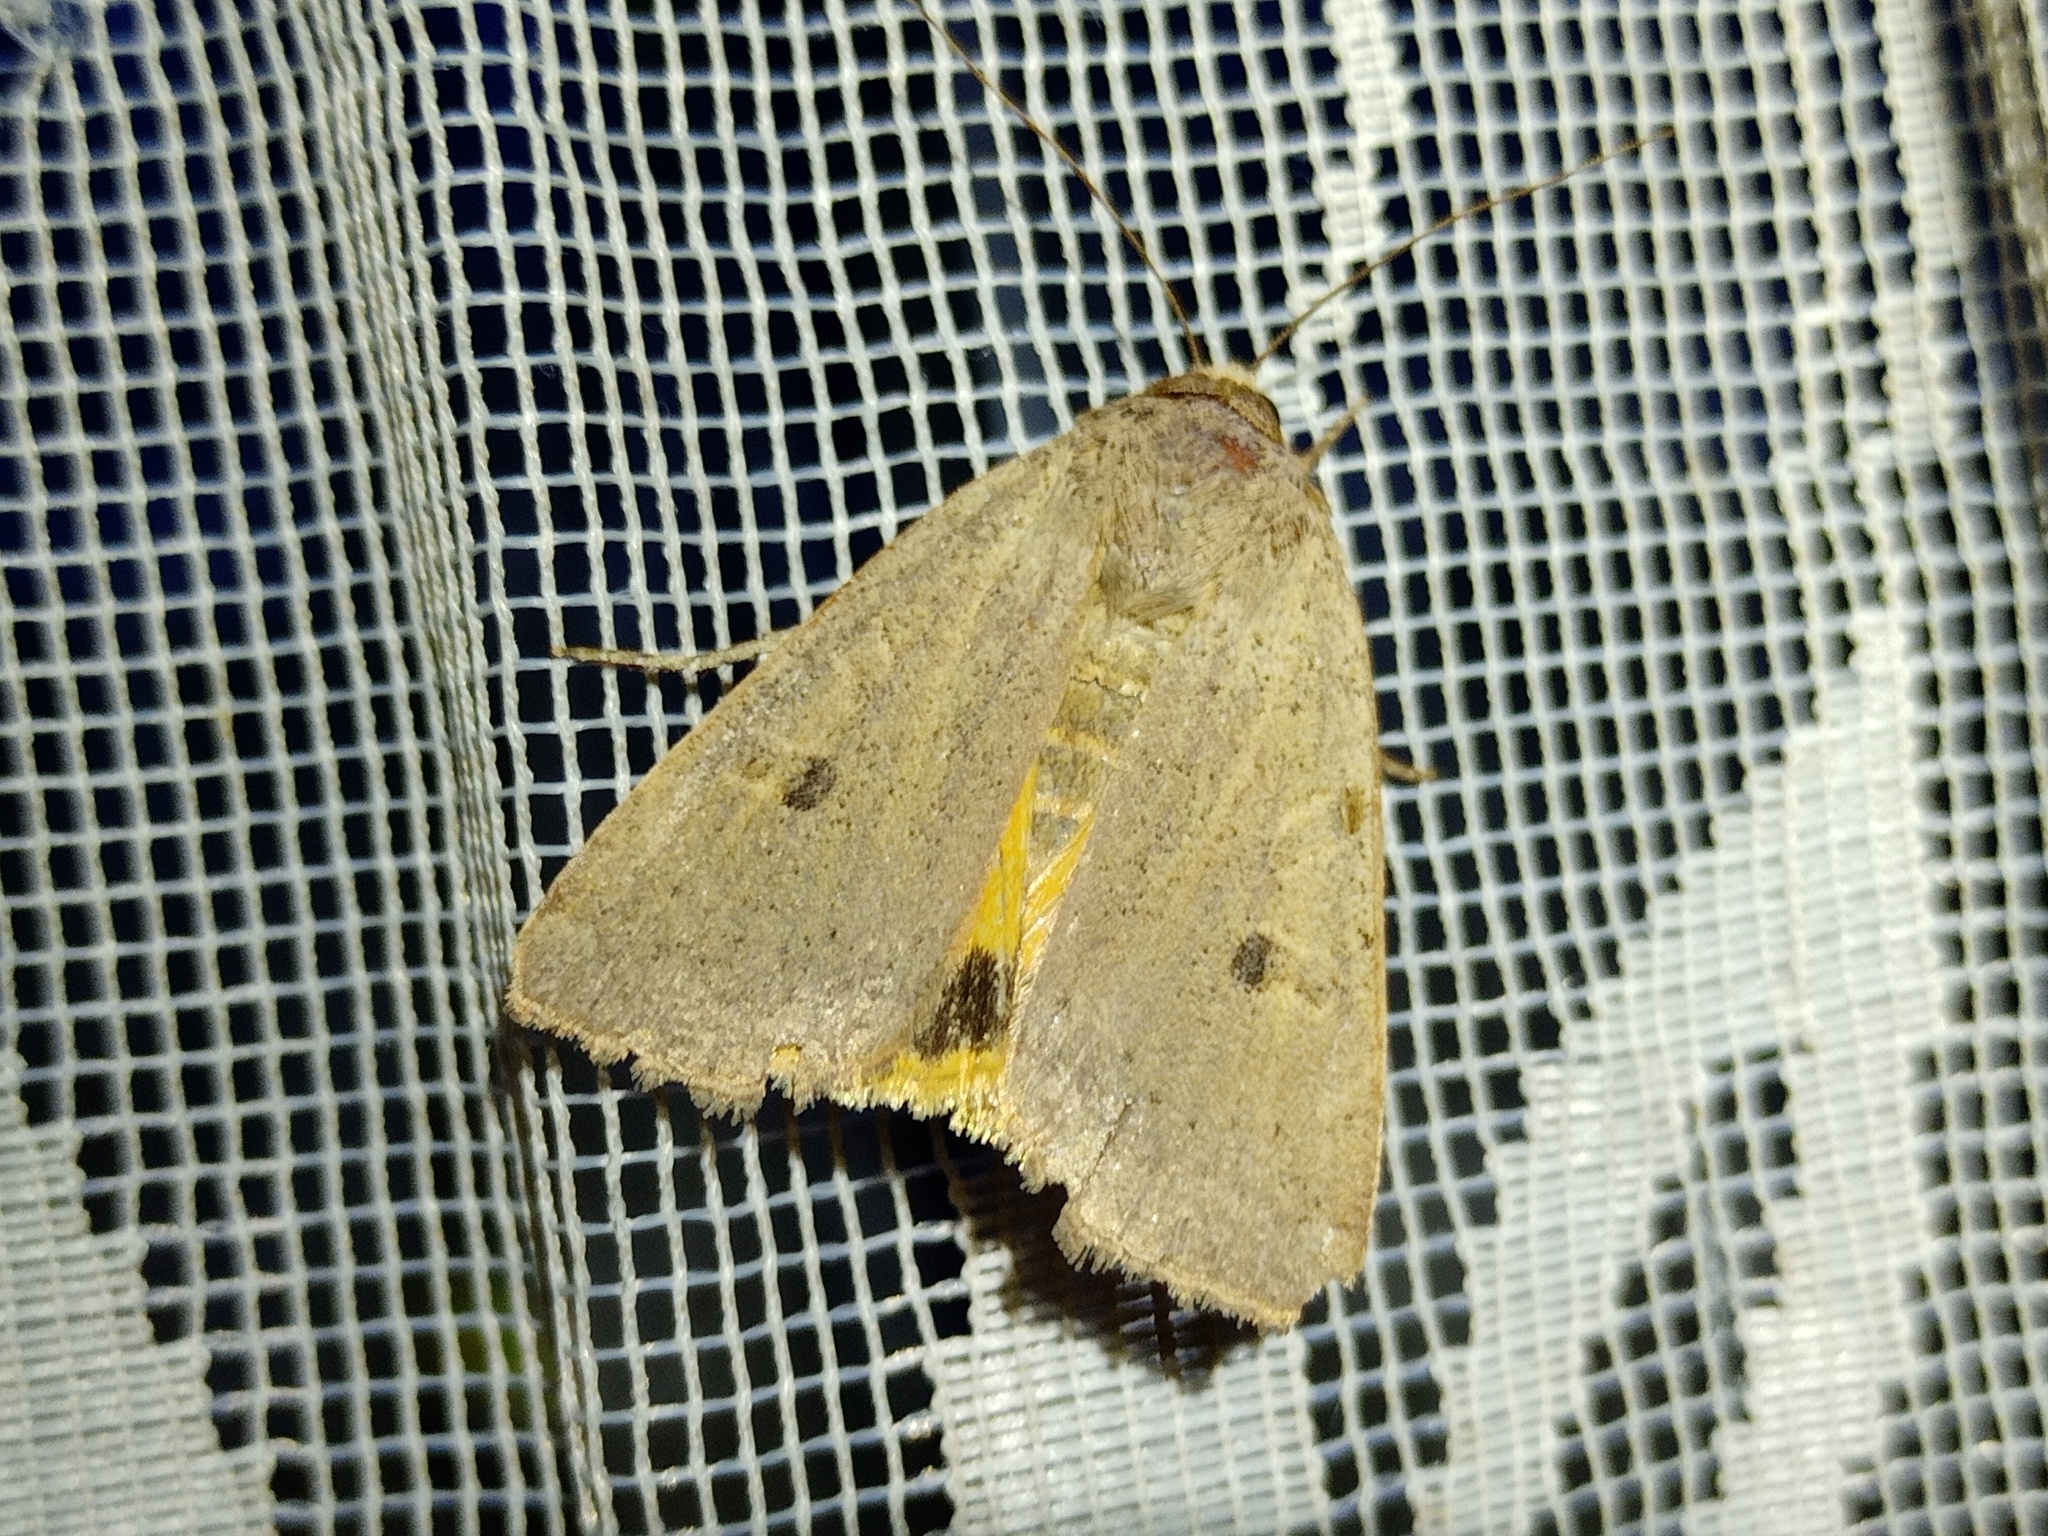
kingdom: Animalia
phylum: Arthropoda
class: Insecta
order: Lepidoptera
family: Noctuidae
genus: Noctua
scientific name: Noctua comes
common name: Lesser yellow underwing
